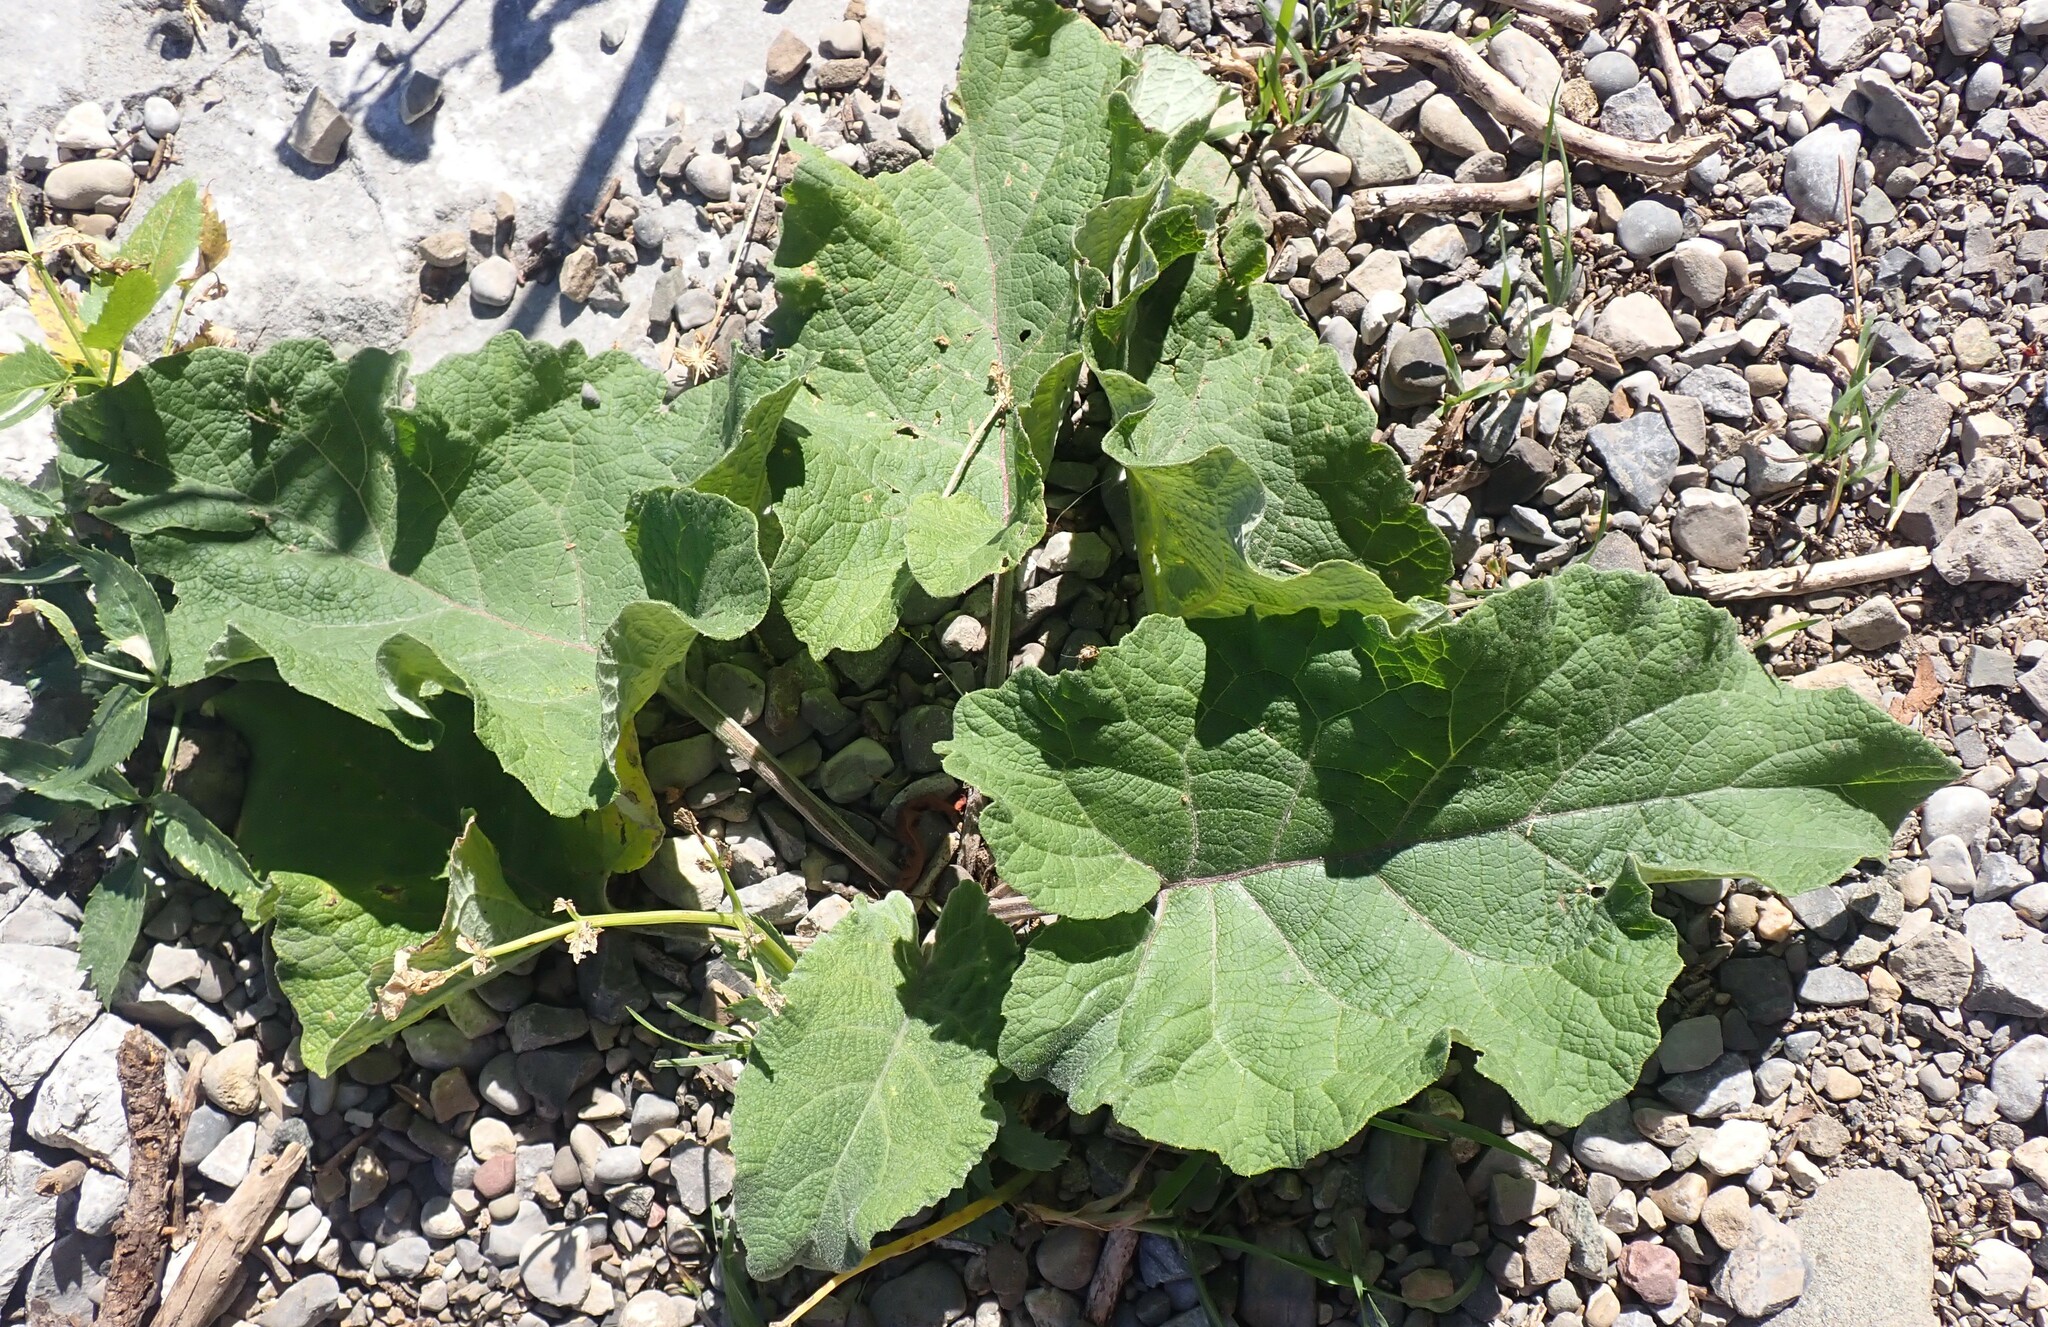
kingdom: Plantae
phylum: Tracheophyta
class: Magnoliopsida
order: Asterales
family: Asteraceae
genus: Arctium
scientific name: Arctium
